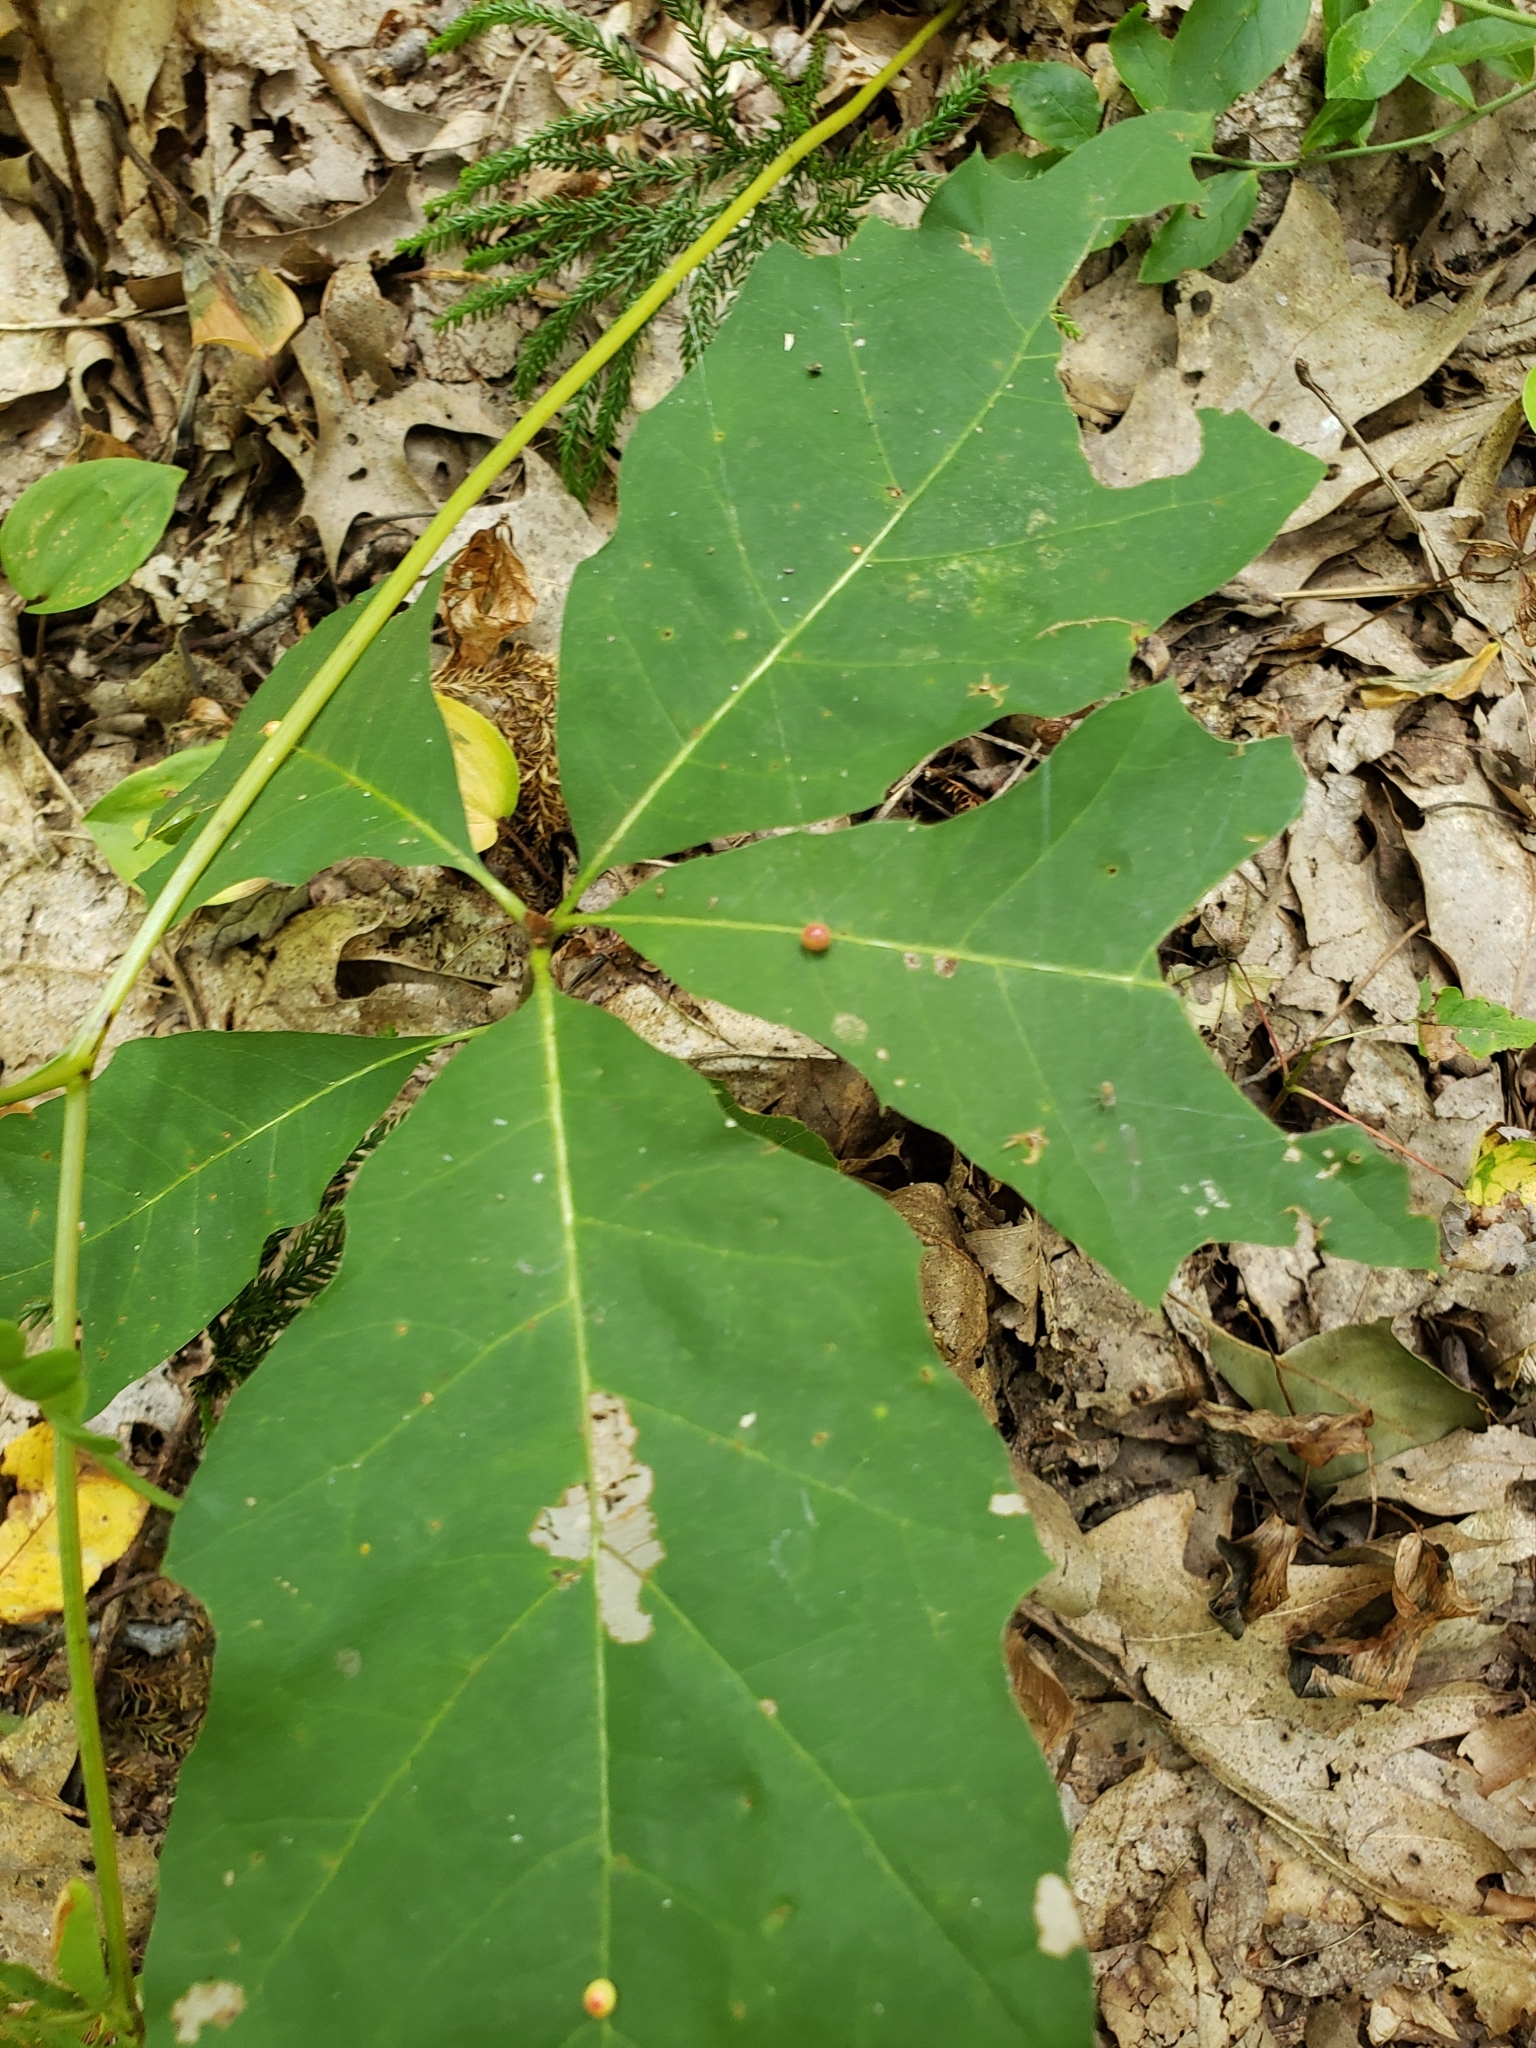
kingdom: Animalia
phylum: Arthropoda
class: Insecta
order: Hymenoptera
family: Cynipidae
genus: Zopheroteras
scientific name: Zopheroteras
